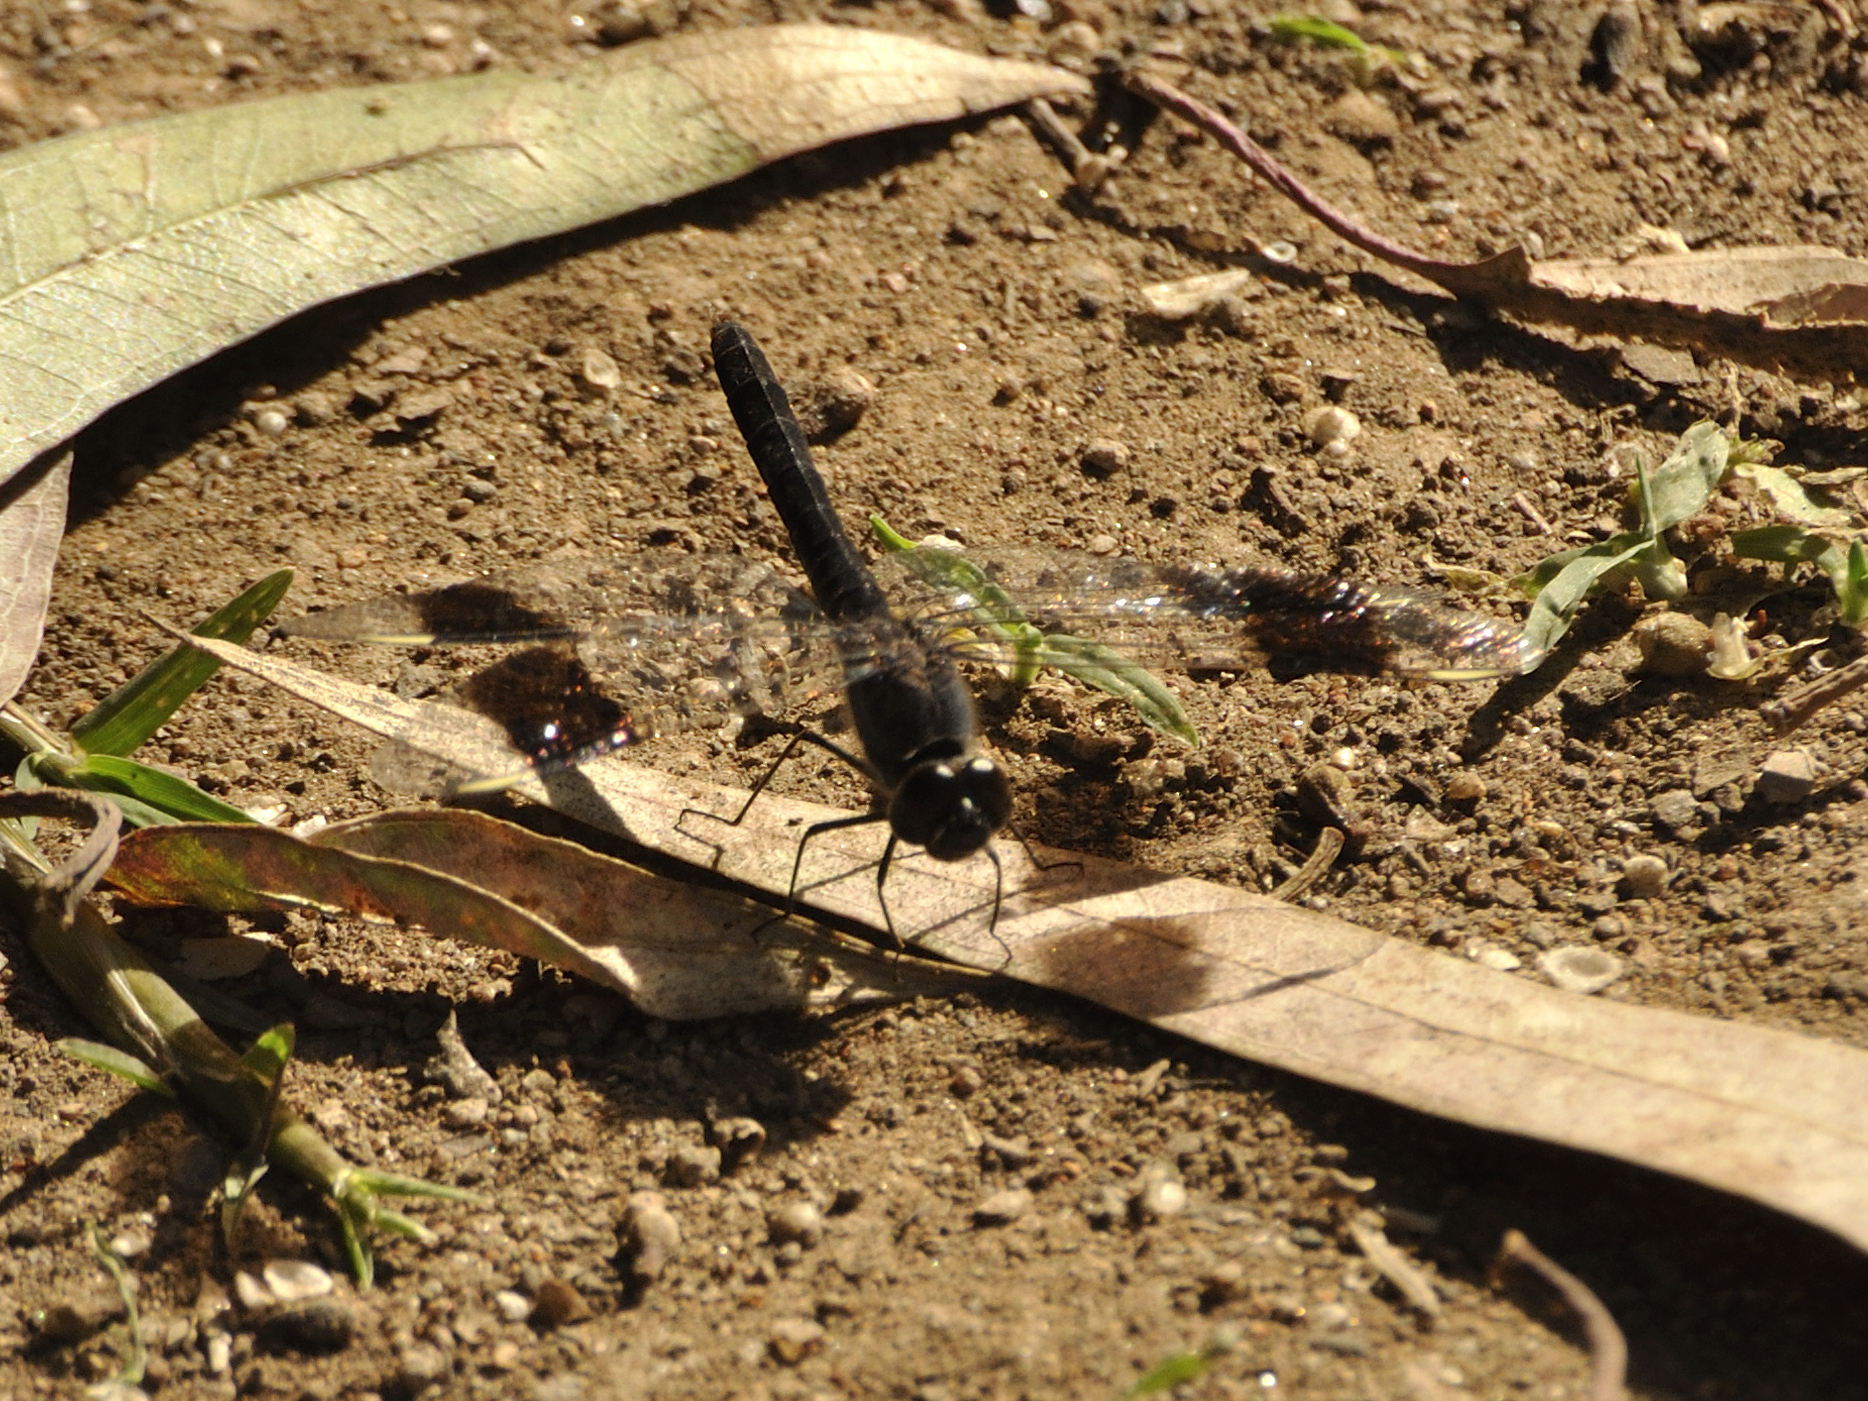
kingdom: Animalia
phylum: Arthropoda
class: Insecta
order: Odonata
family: Libellulidae
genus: Brachythemis
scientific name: Brachythemis leucosticta
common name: Banded groundling
